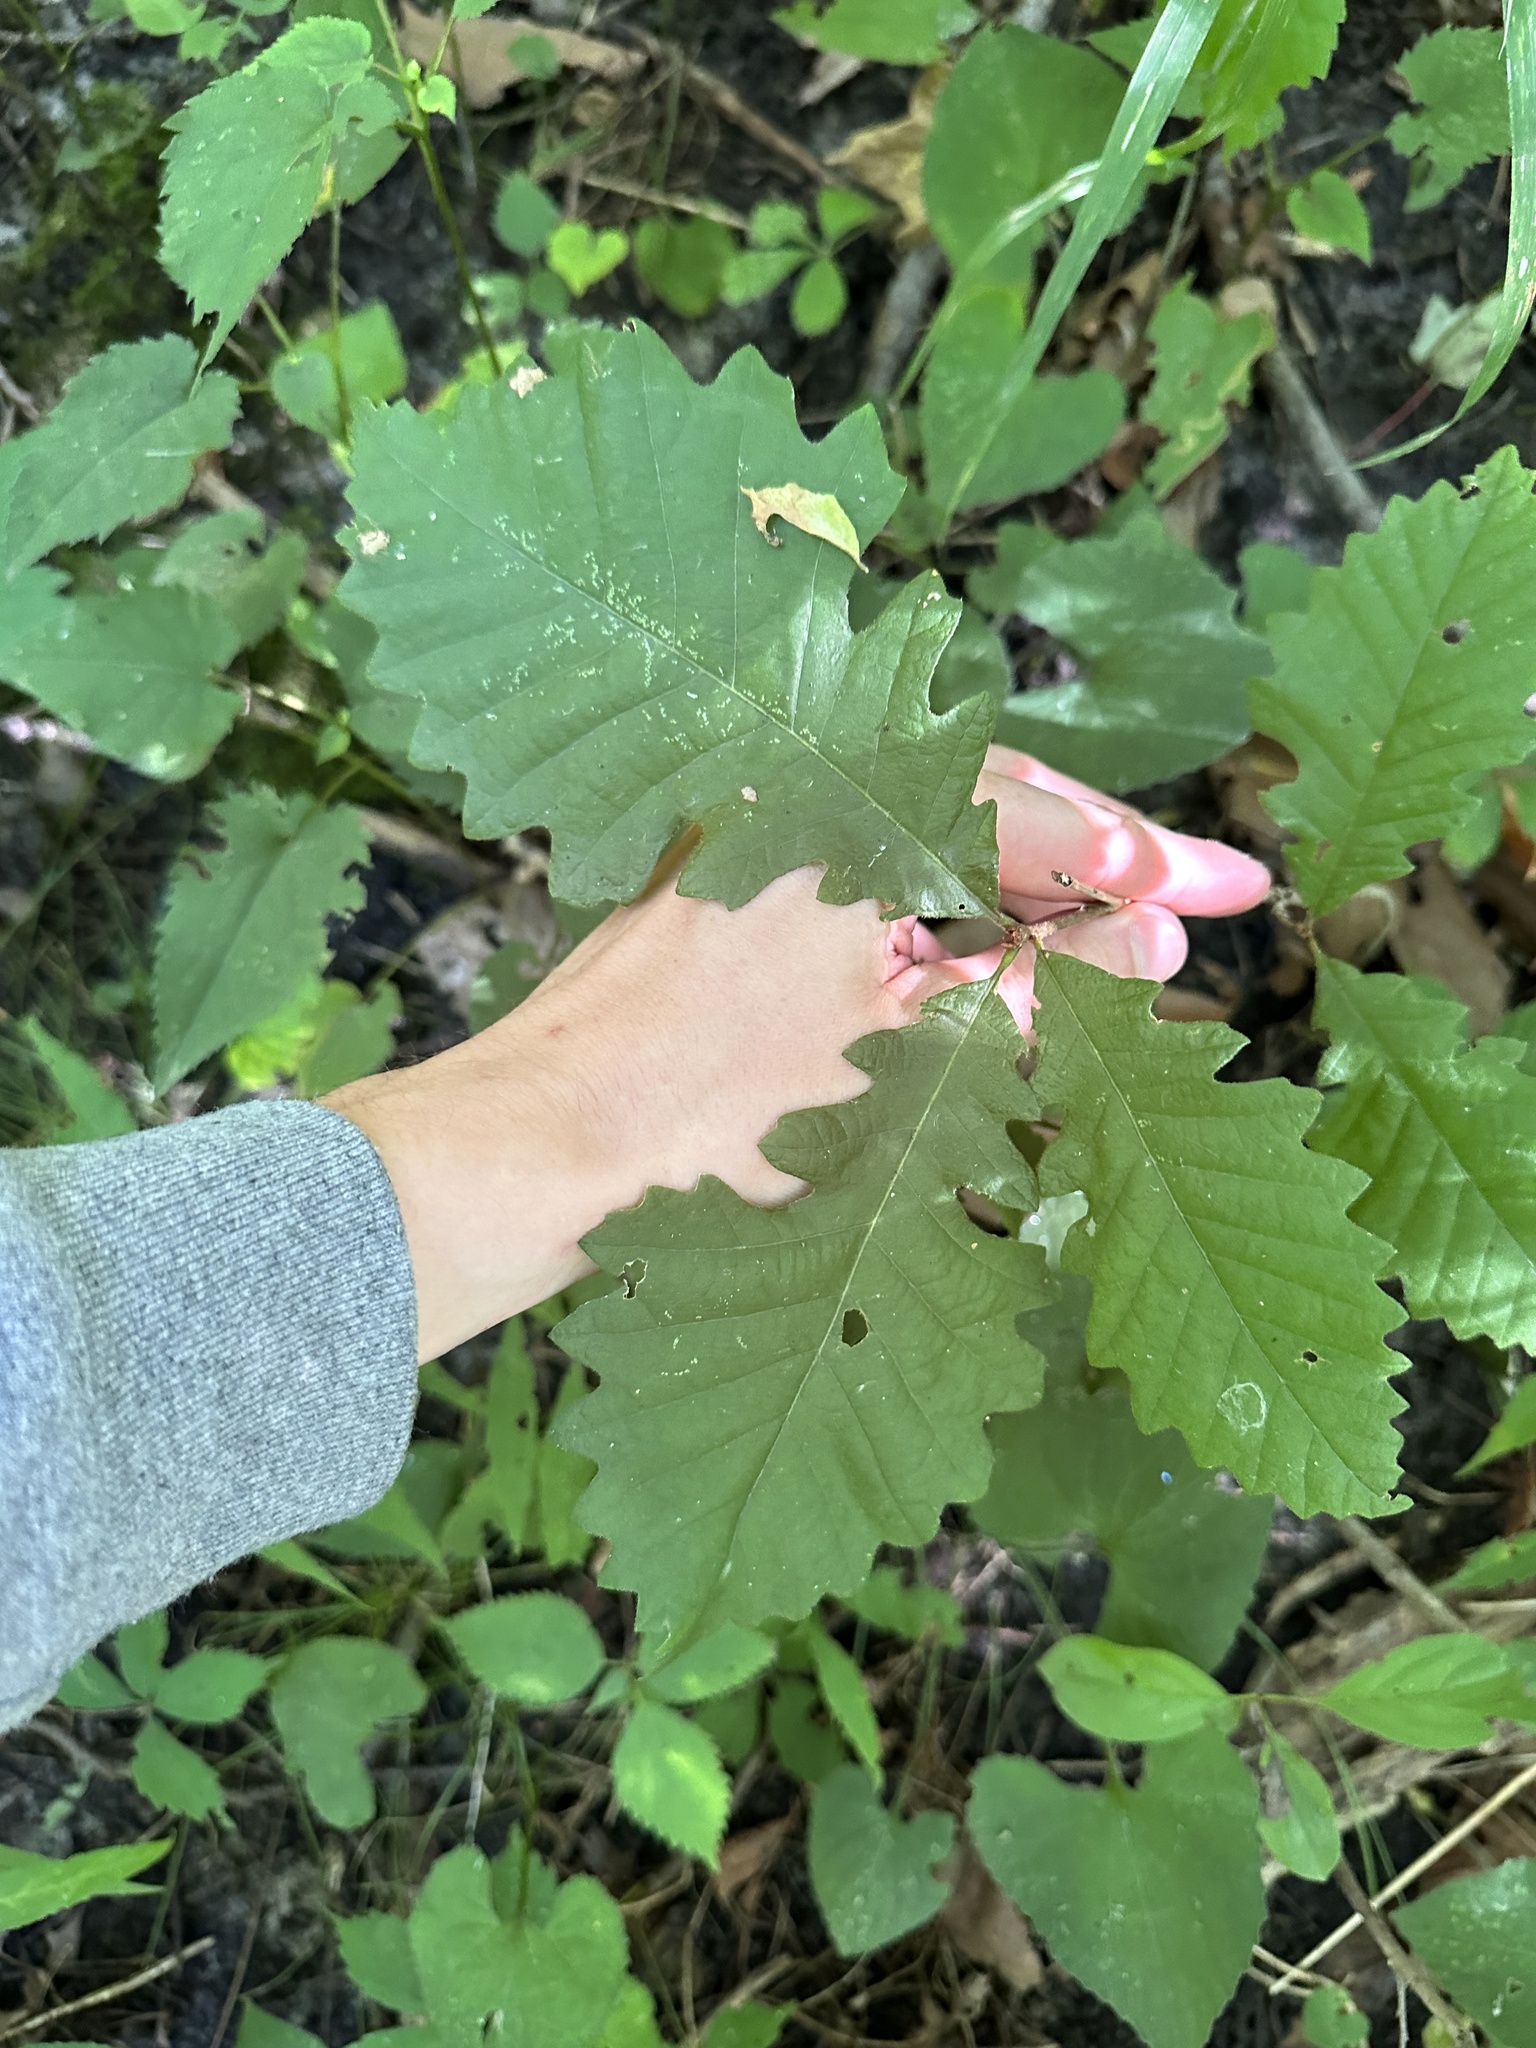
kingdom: Plantae
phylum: Tracheophyta
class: Magnoliopsida
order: Fagales
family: Fagaceae
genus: Quercus
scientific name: Quercus macrocarpa
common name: Bur oak
